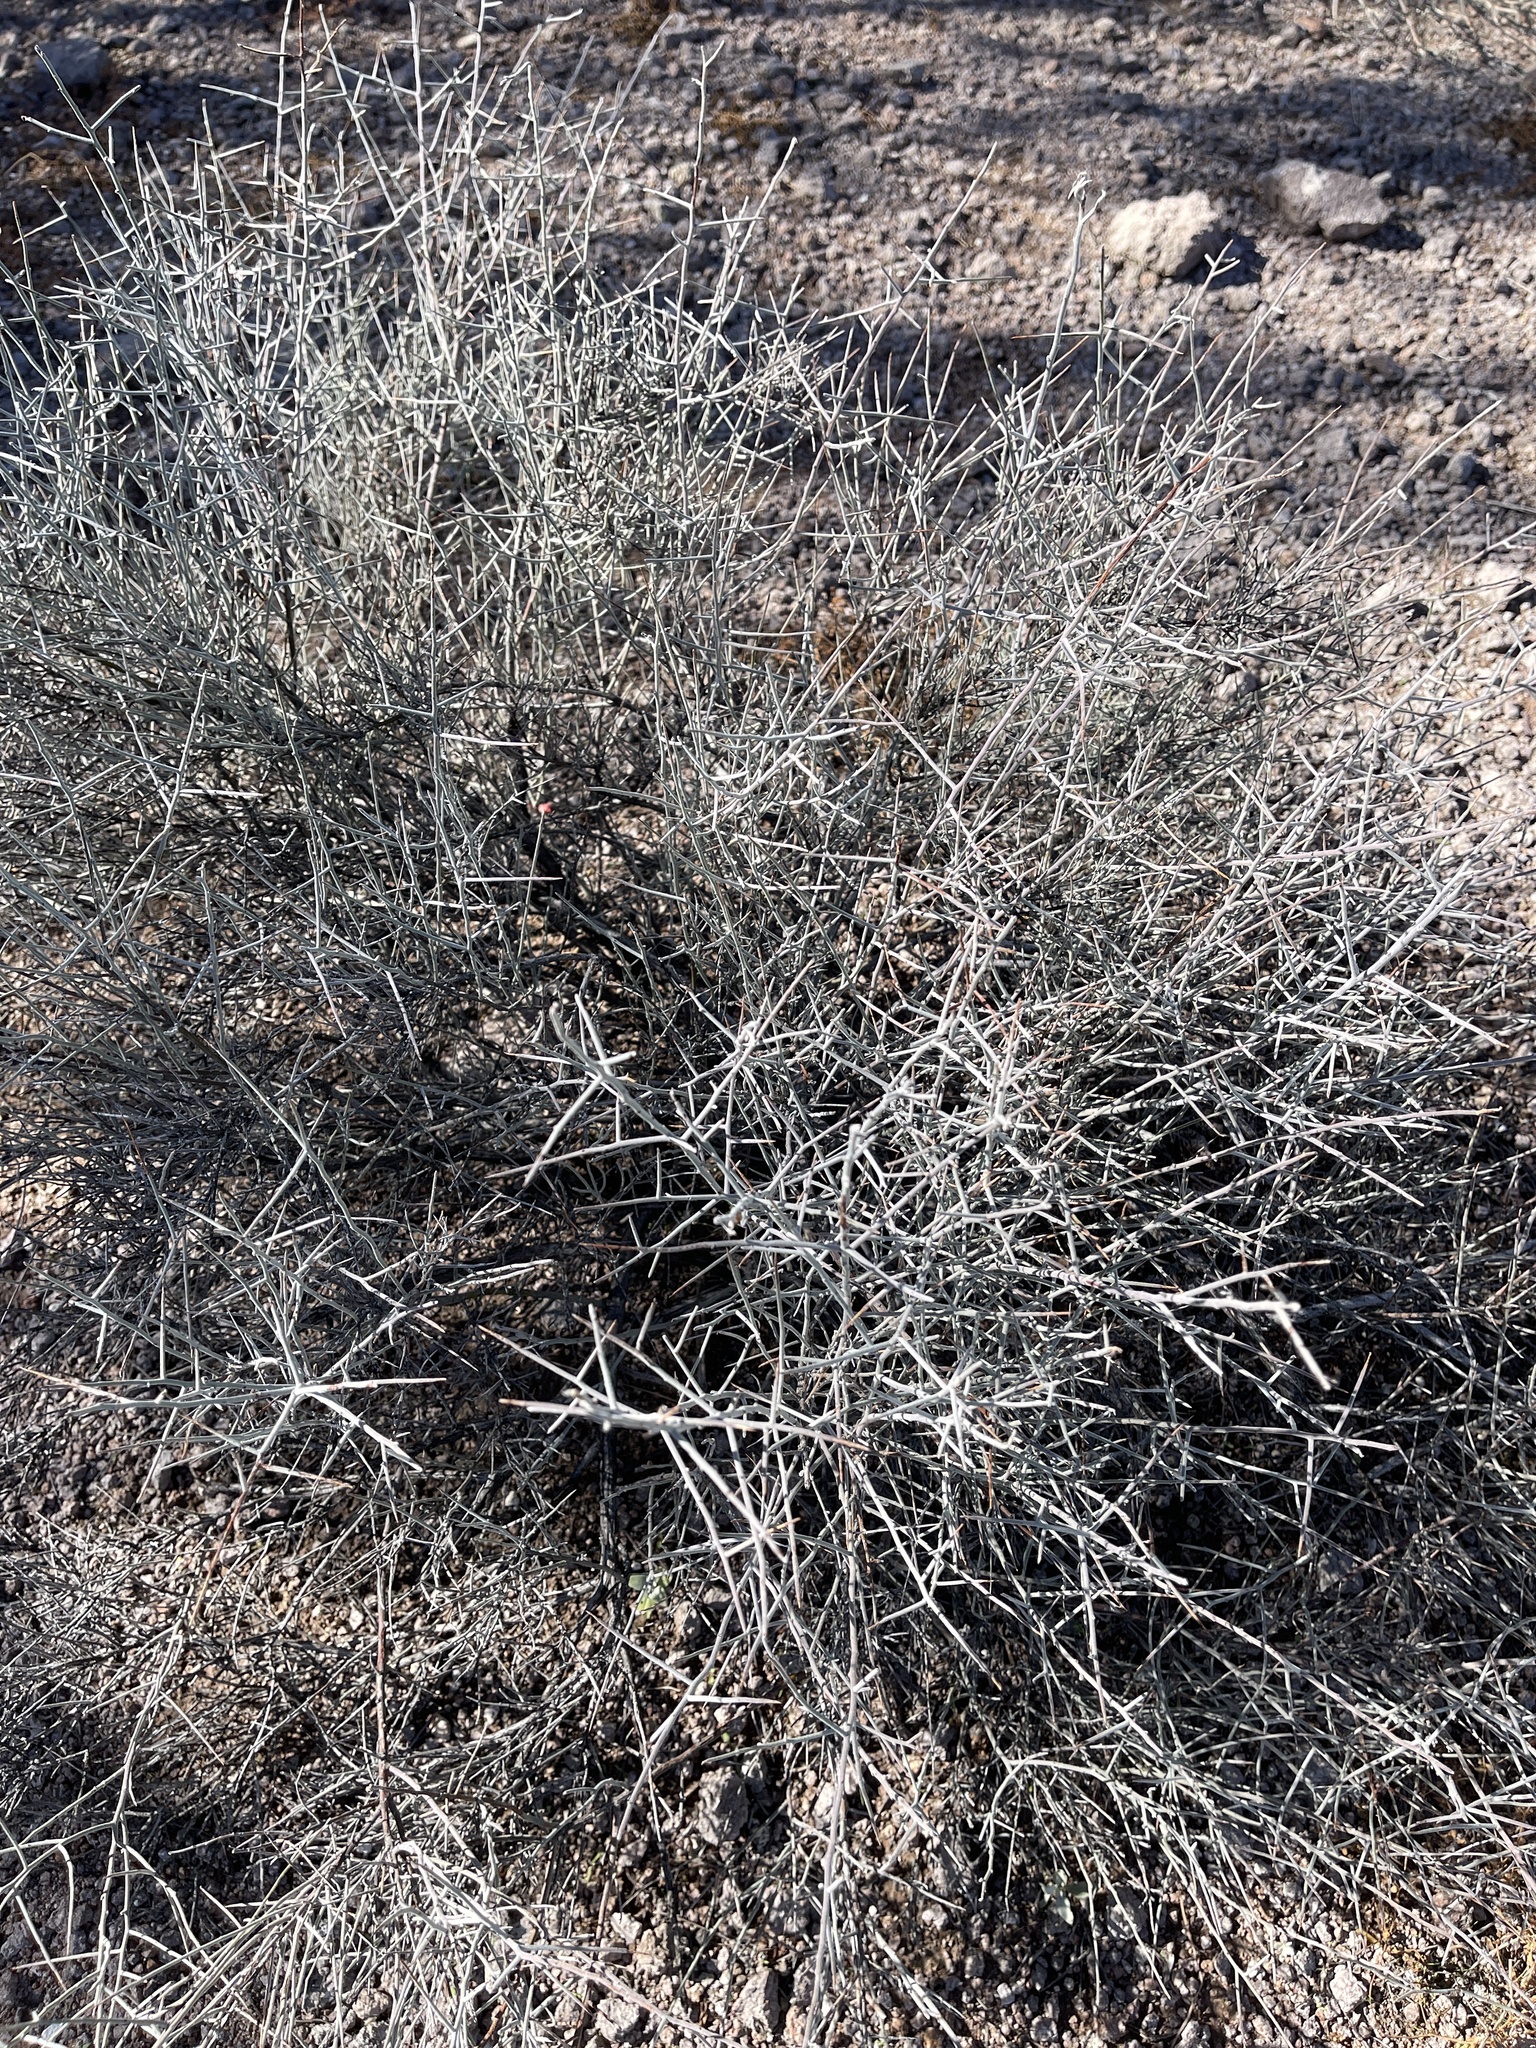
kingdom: Plantae
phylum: Tracheophyta
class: Magnoliopsida
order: Zygophyllales
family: Krameriaceae
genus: Krameria
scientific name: Krameria bicolor
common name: White ratany
